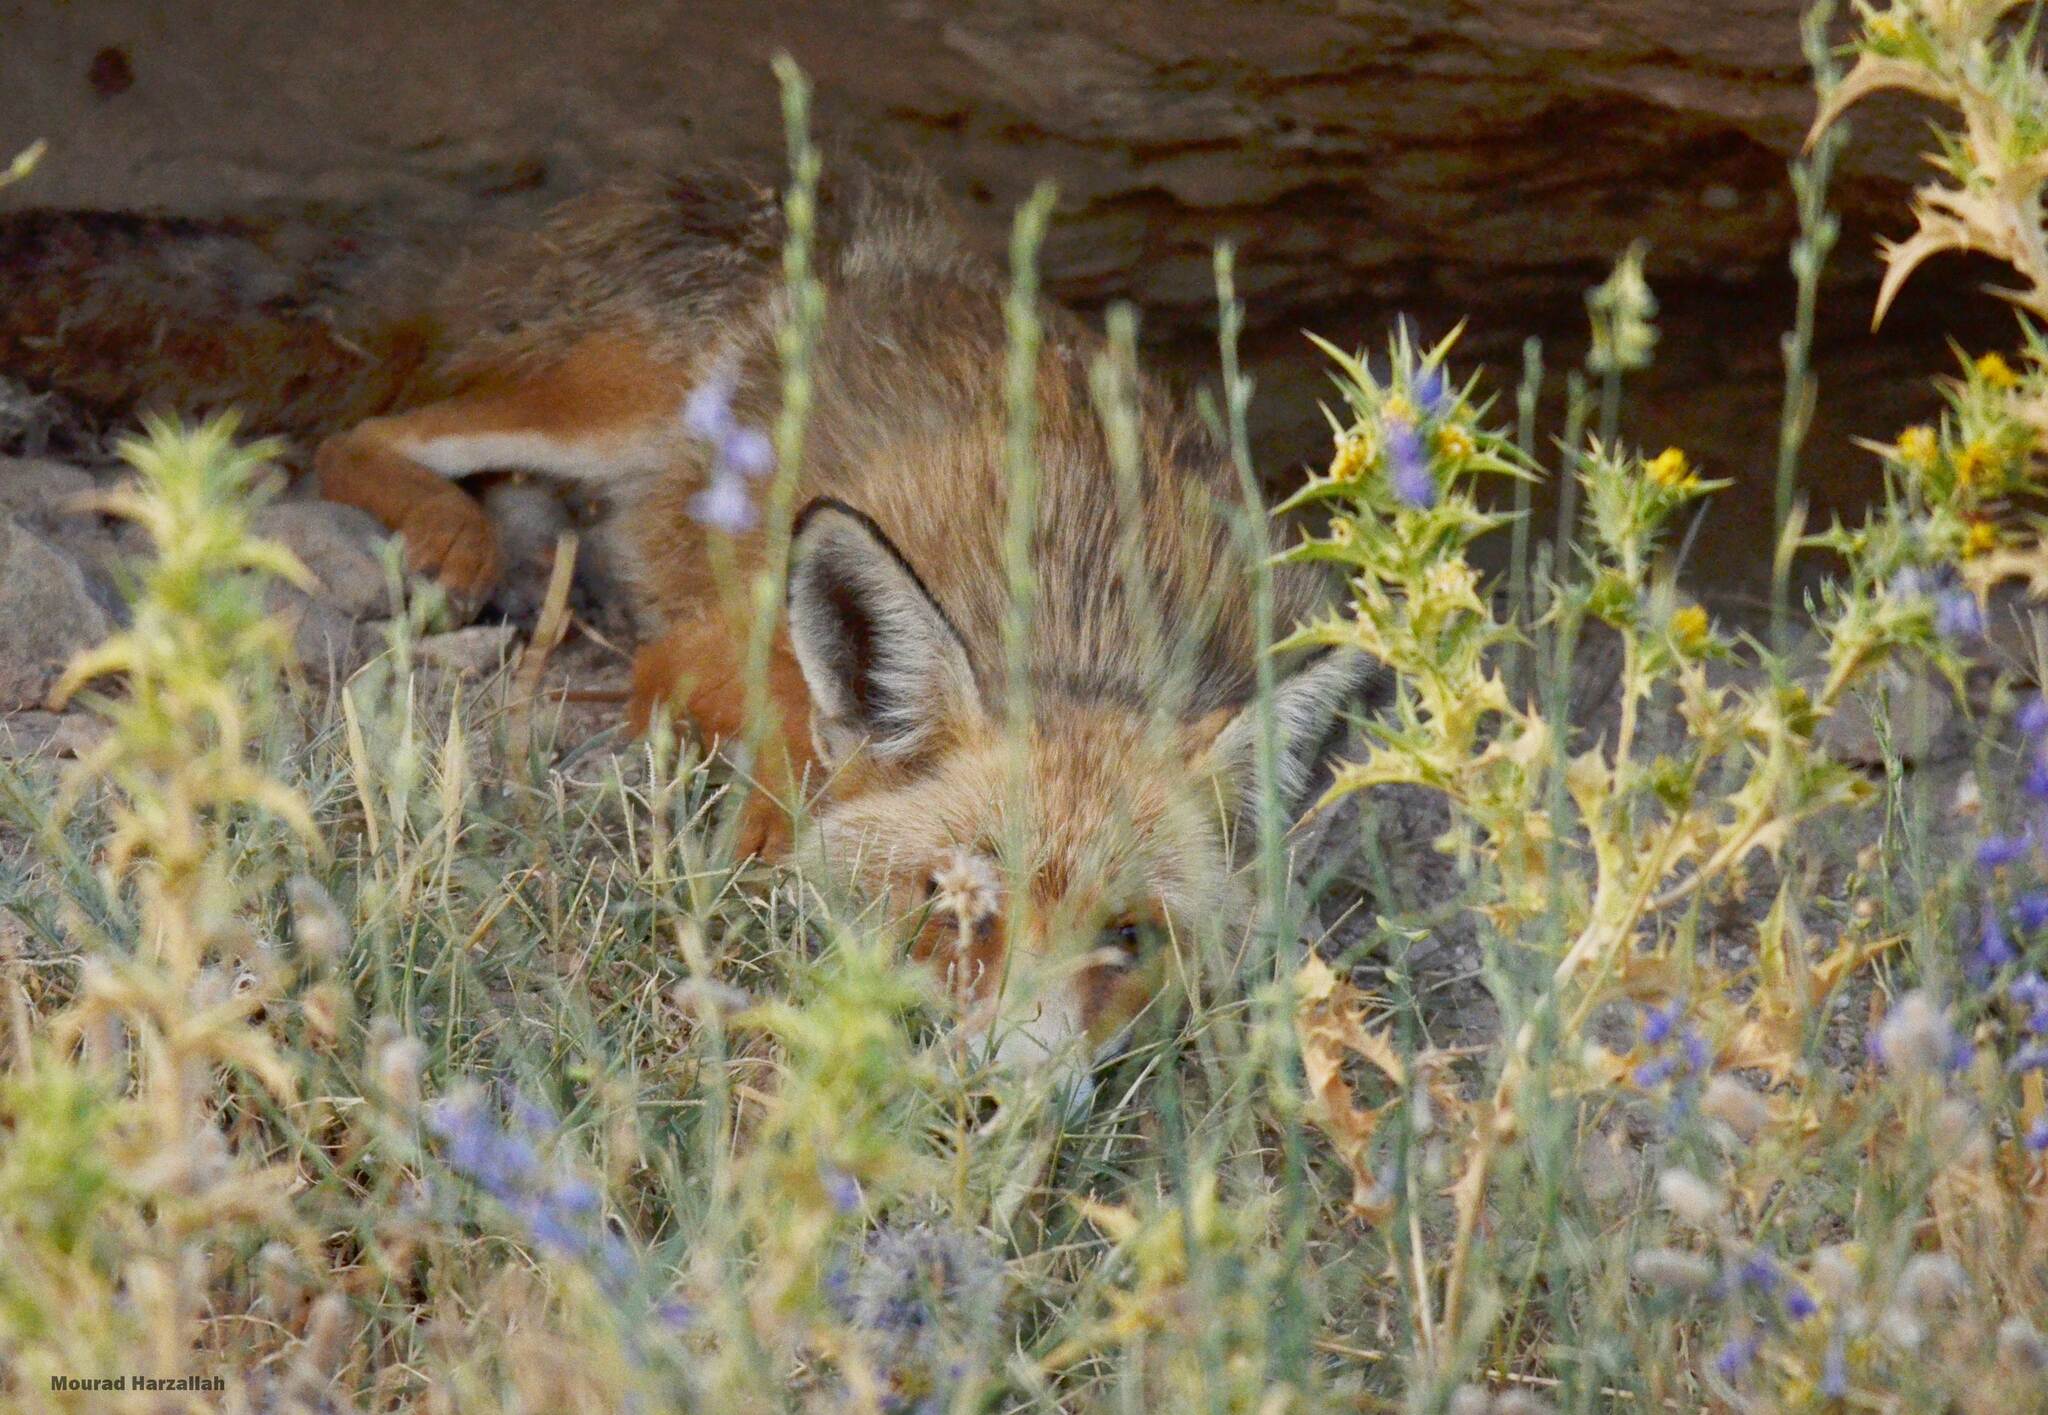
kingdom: Animalia
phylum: Chordata
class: Mammalia
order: Carnivora
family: Canidae
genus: Vulpes
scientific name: Vulpes vulpes
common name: Red fox
